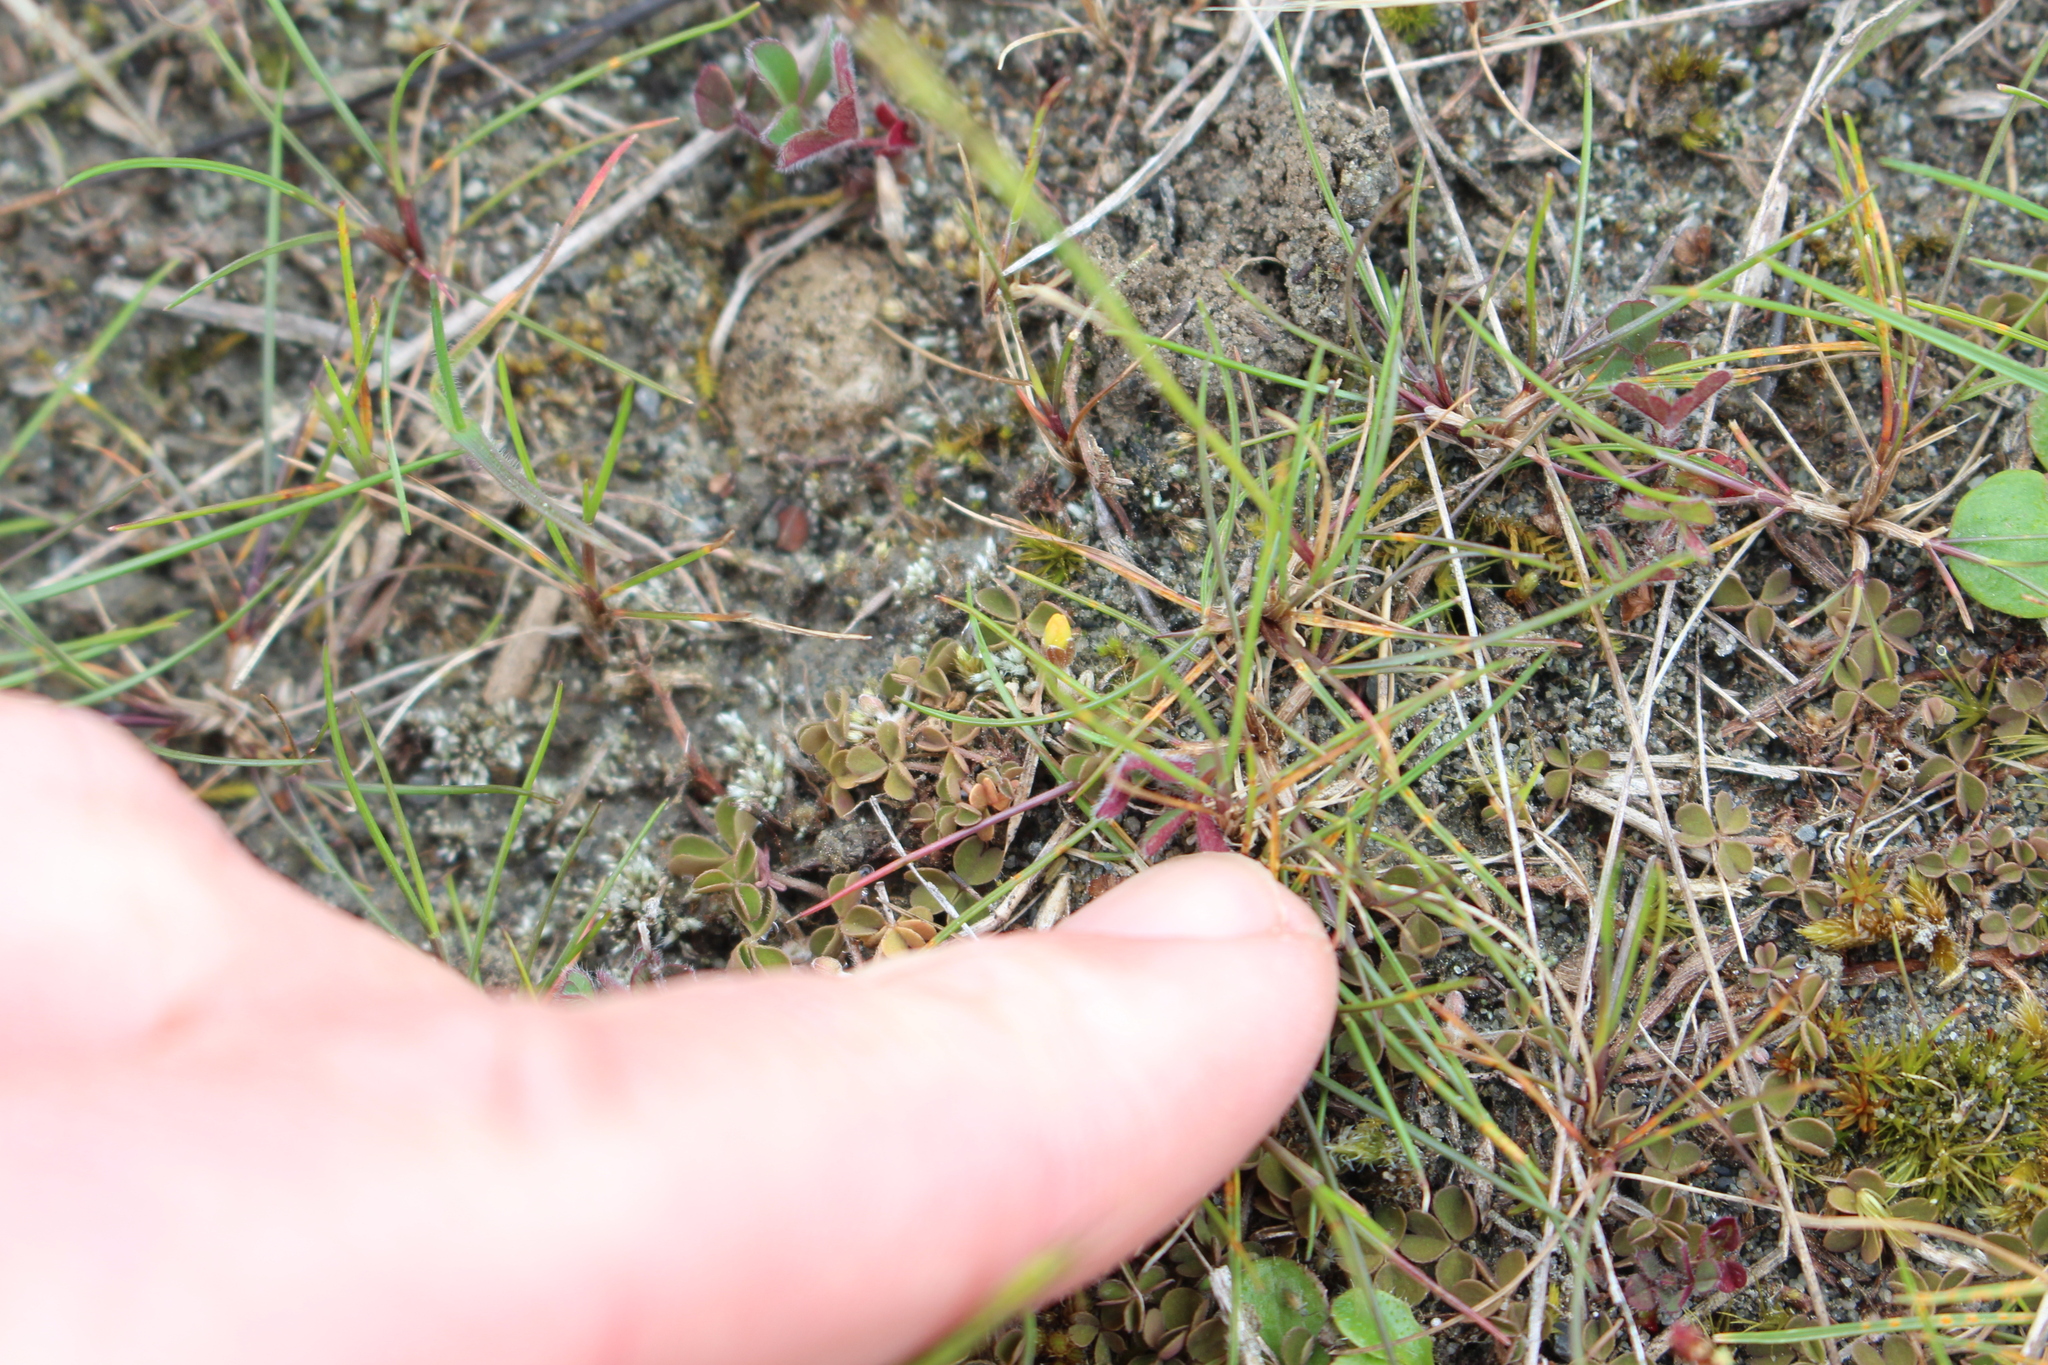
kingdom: Plantae
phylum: Tracheophyta
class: Magnoliopsida
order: Oxalidales
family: Oxalidaceae
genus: Oxalis
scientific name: Oxalis exilis
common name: Least yellow-sorrel
